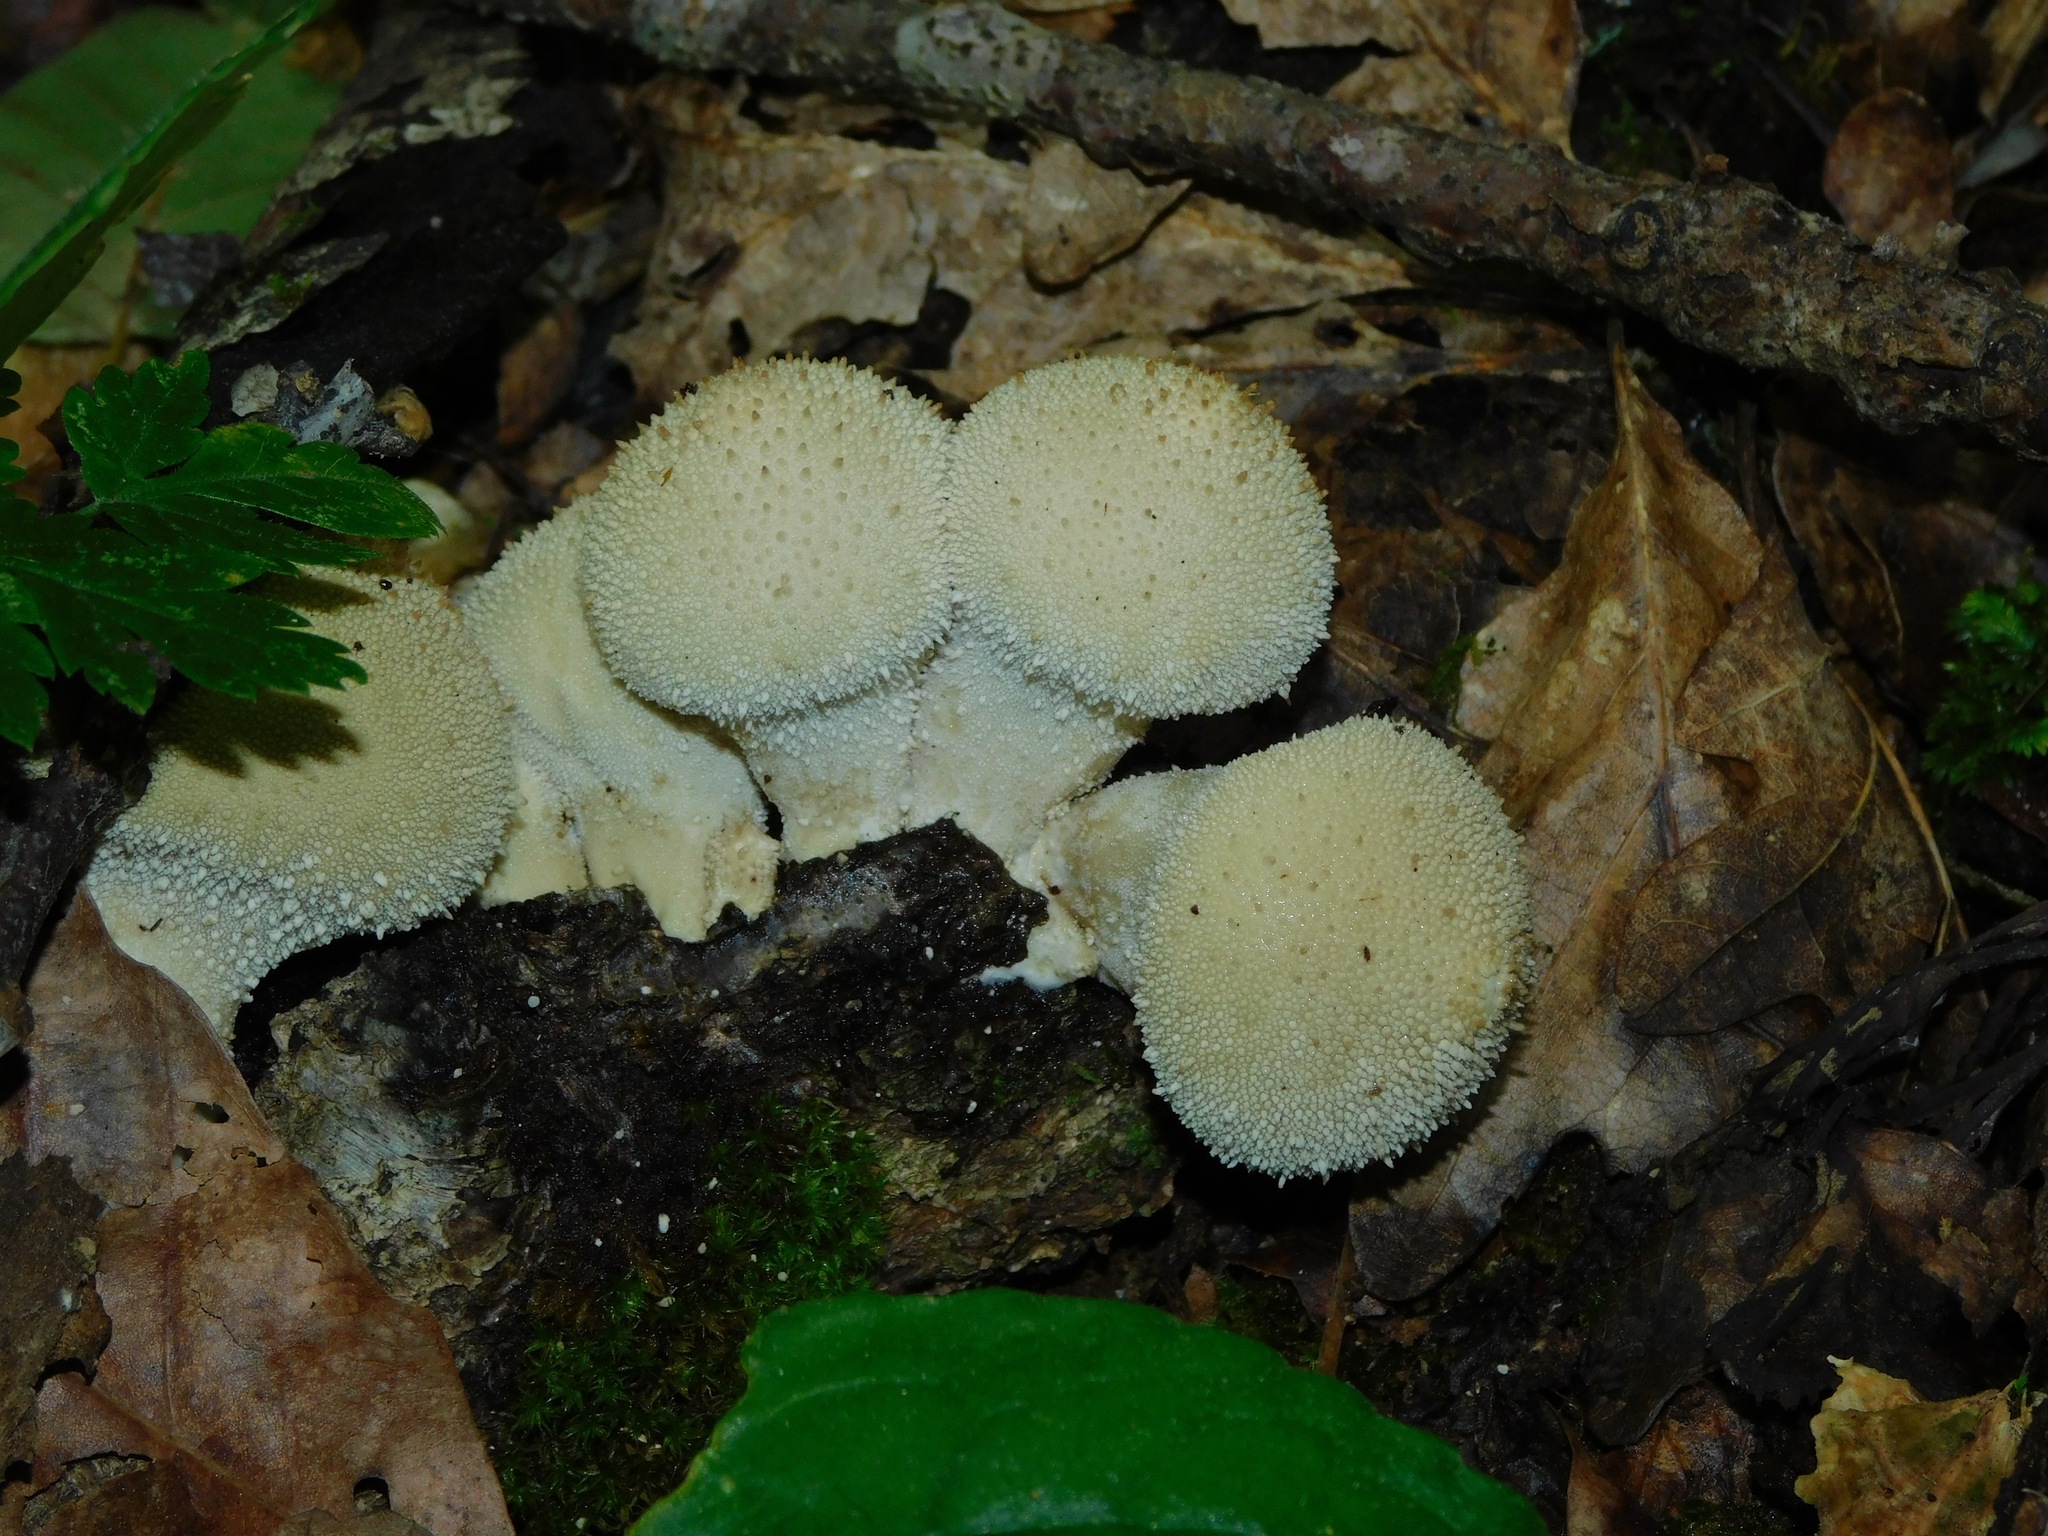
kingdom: Fungi
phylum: Basidiomycota
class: Agaricomycetes
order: Agaricales
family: Lycoperdaceae
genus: Lycoperdon
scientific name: Lycoperdon perlatum
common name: Common puffball
